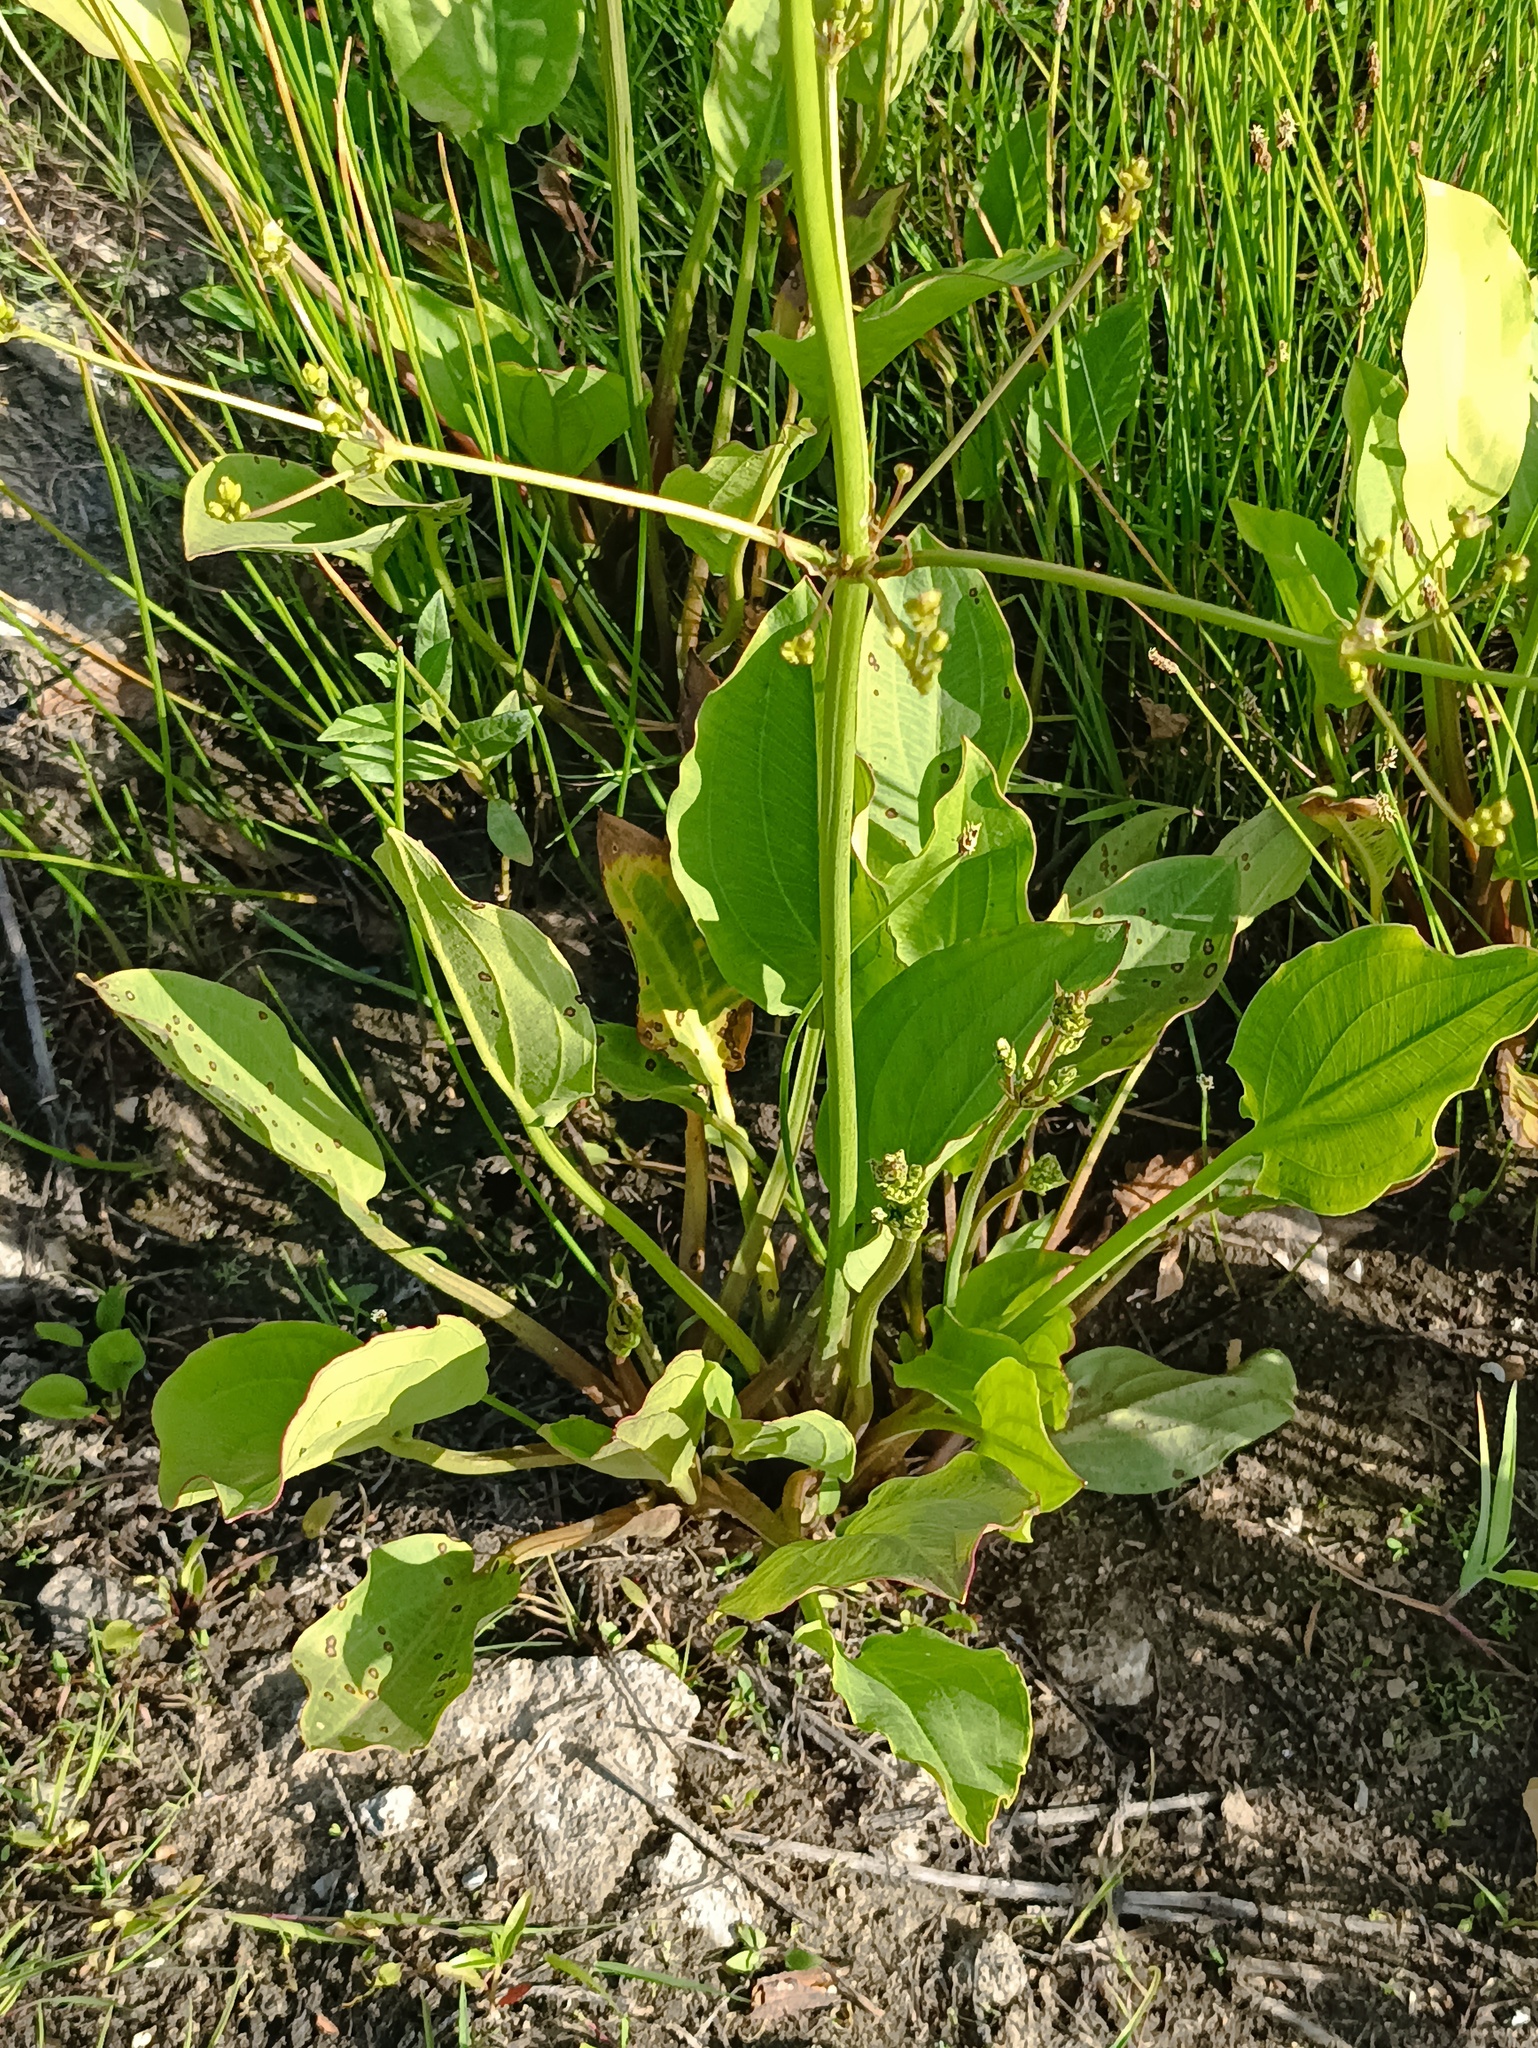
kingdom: Plantae
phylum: Tracheophyta
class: Liliopsida
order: Alismatales
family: Alismataceae
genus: Alisma
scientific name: Alisma plantago-aquatica
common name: Water-plantain
